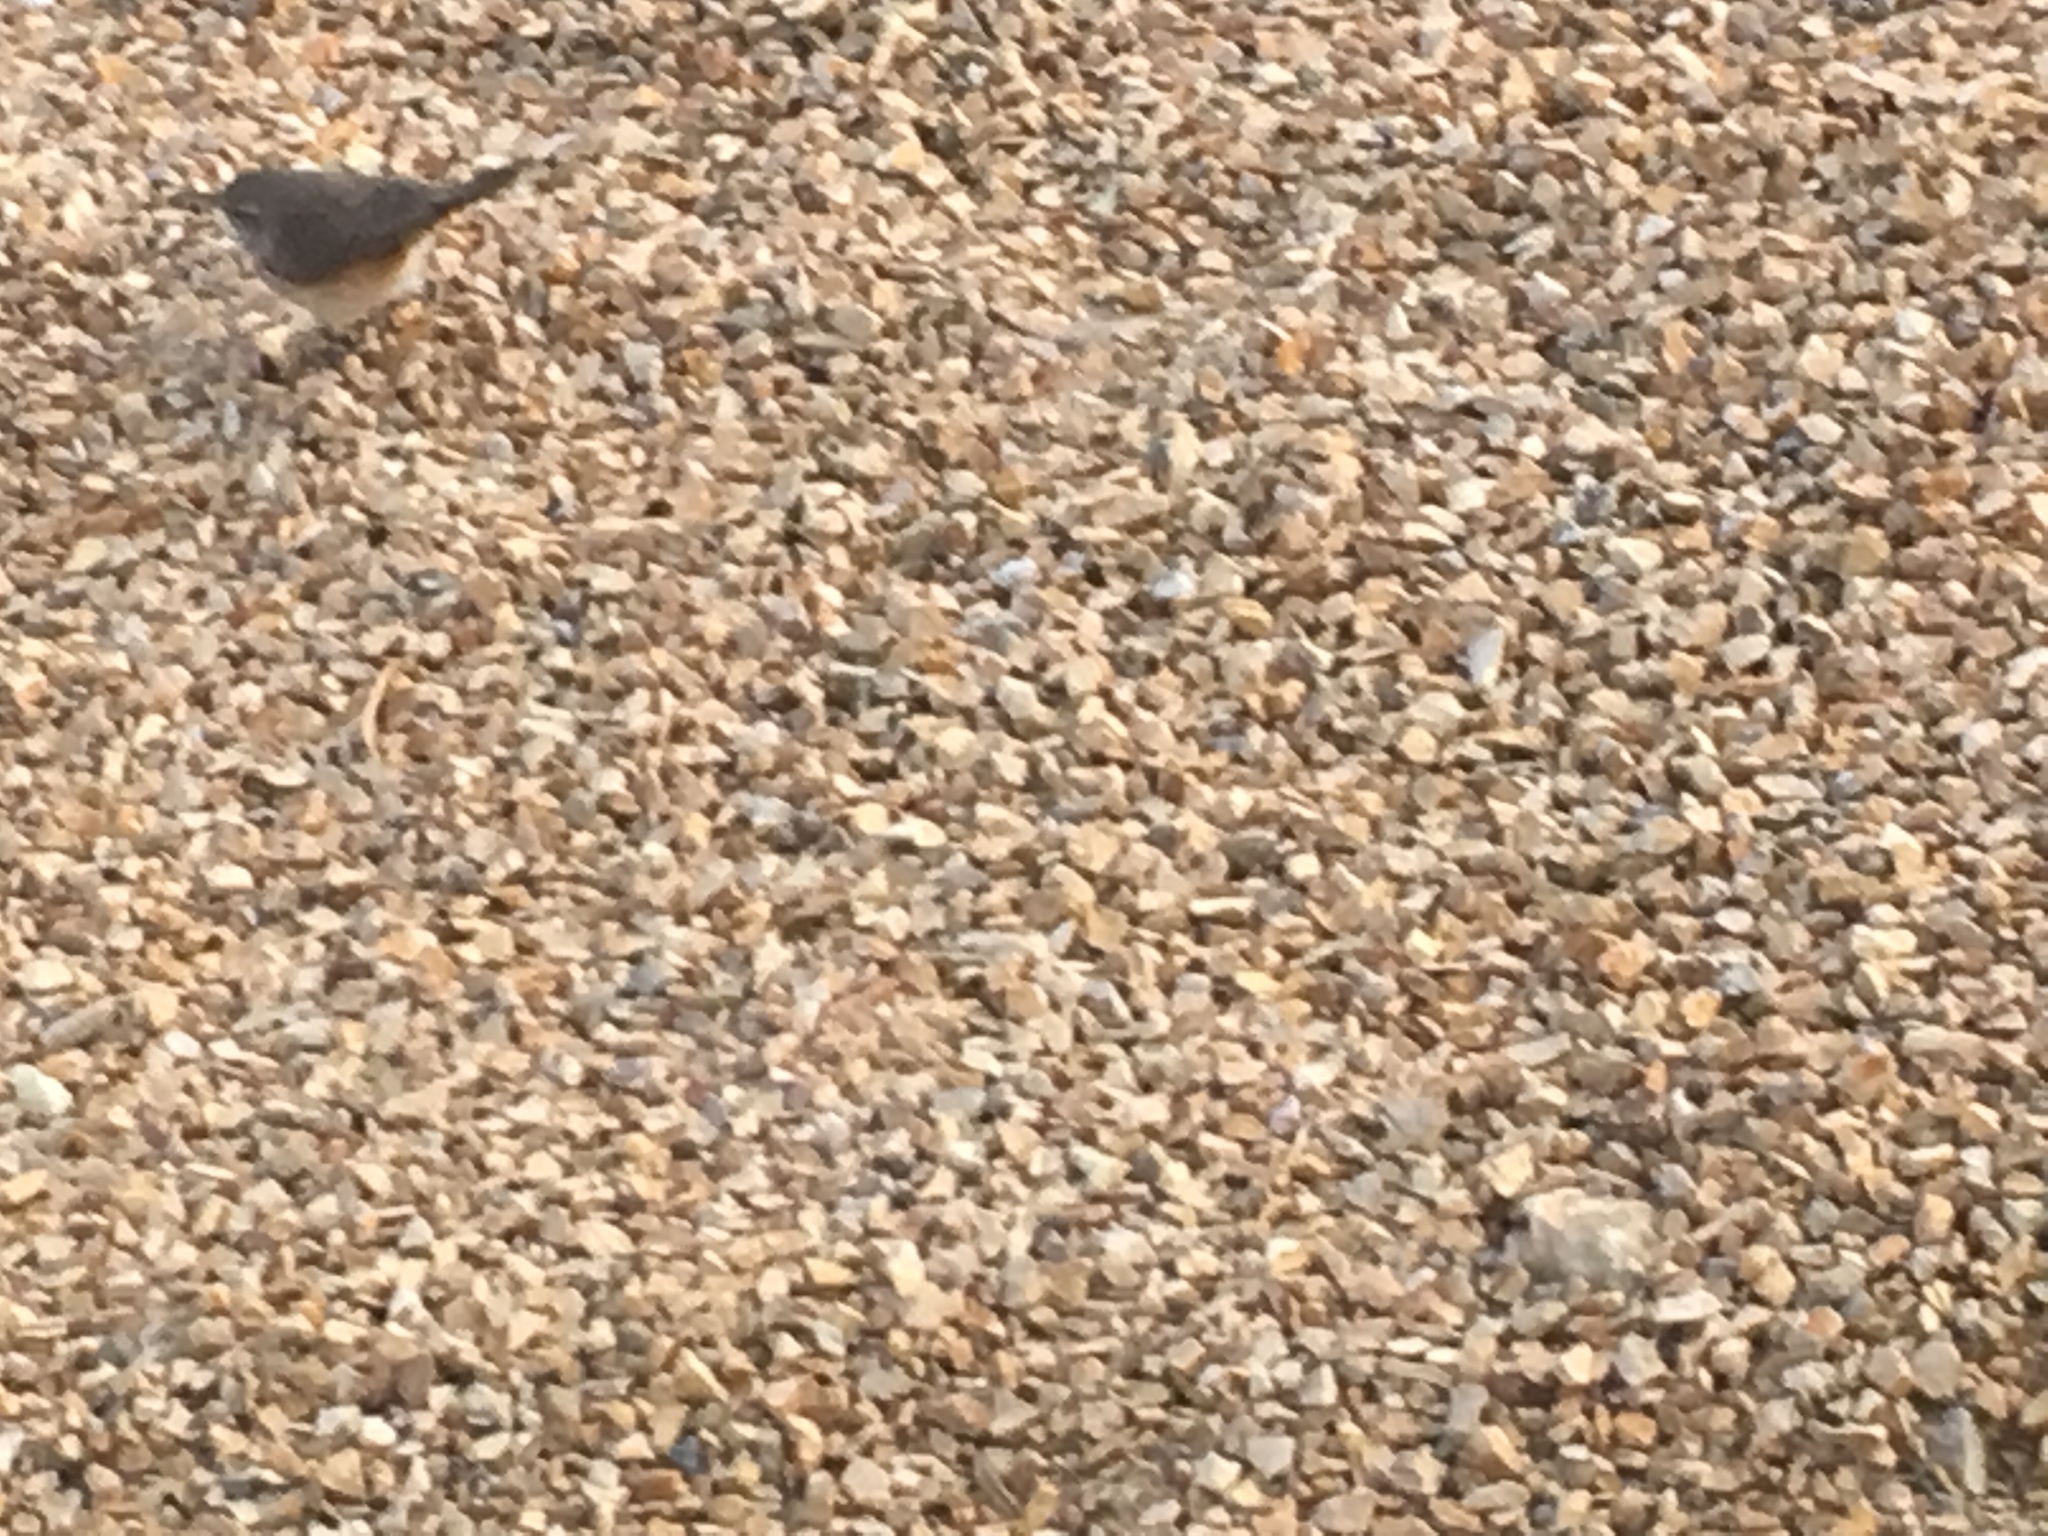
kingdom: Animalia
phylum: Chordata
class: Aves
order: Passeriformes
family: Troglodytidae
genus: Salpinctes
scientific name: Salpinctes obsoletus
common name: Rock wren
